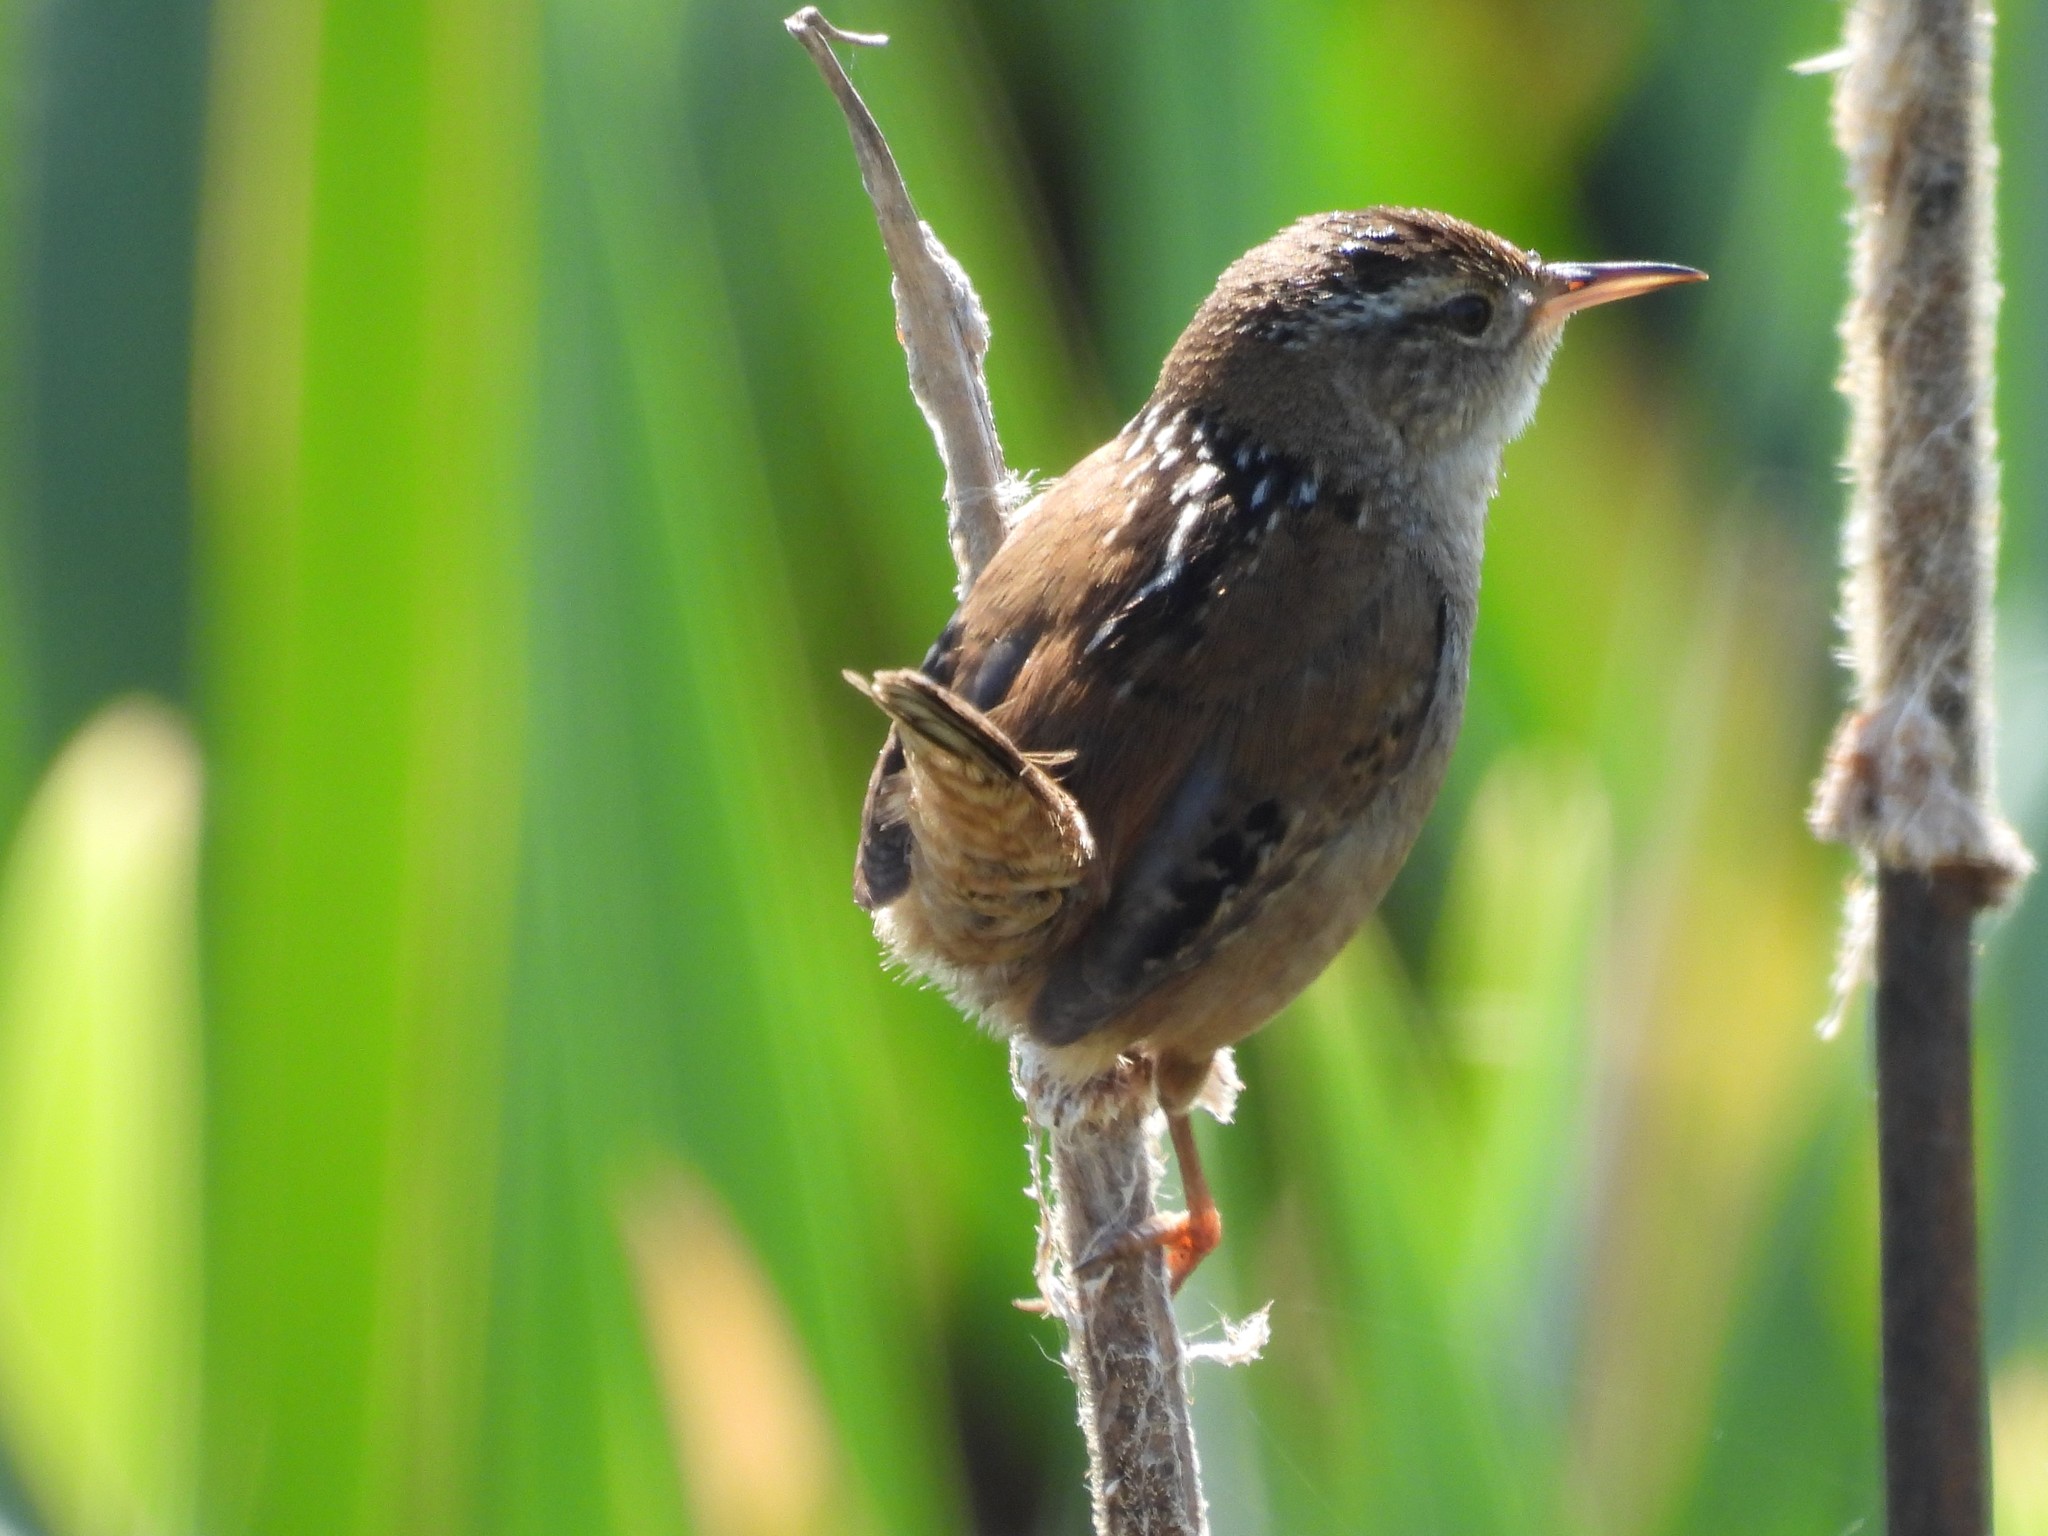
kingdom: Animalia
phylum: Chordata
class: Aves
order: Passeriformes
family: Troglodytidae
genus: Cistothorus
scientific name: Cistothorus palustris
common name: Marsh wren
